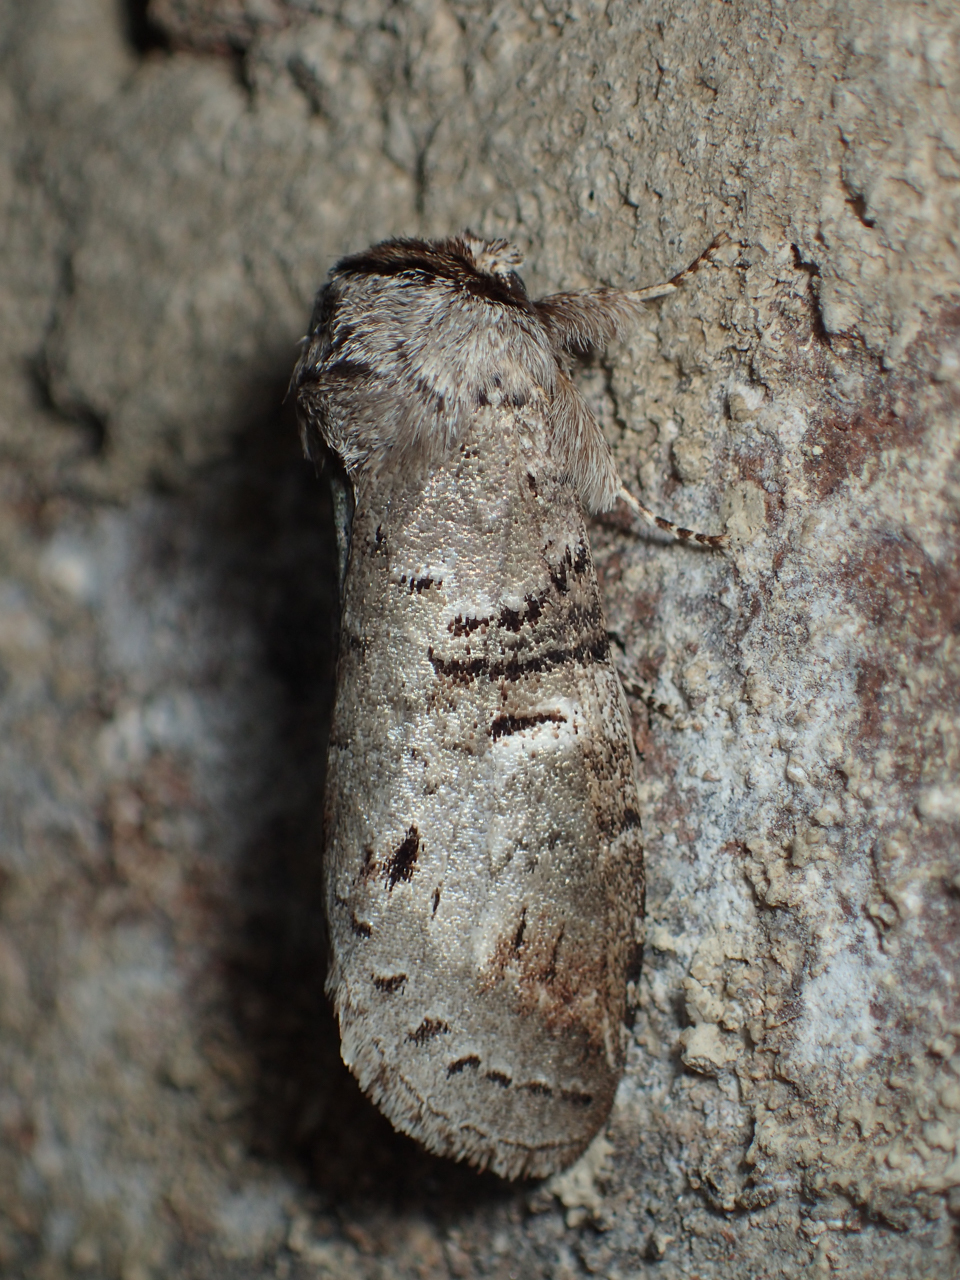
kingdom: Animalia
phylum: Arthropoda
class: Insecta
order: Lepidoptera
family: Notodontidae
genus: Ellida
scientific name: Ellida caniplaga
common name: Linden prominent
